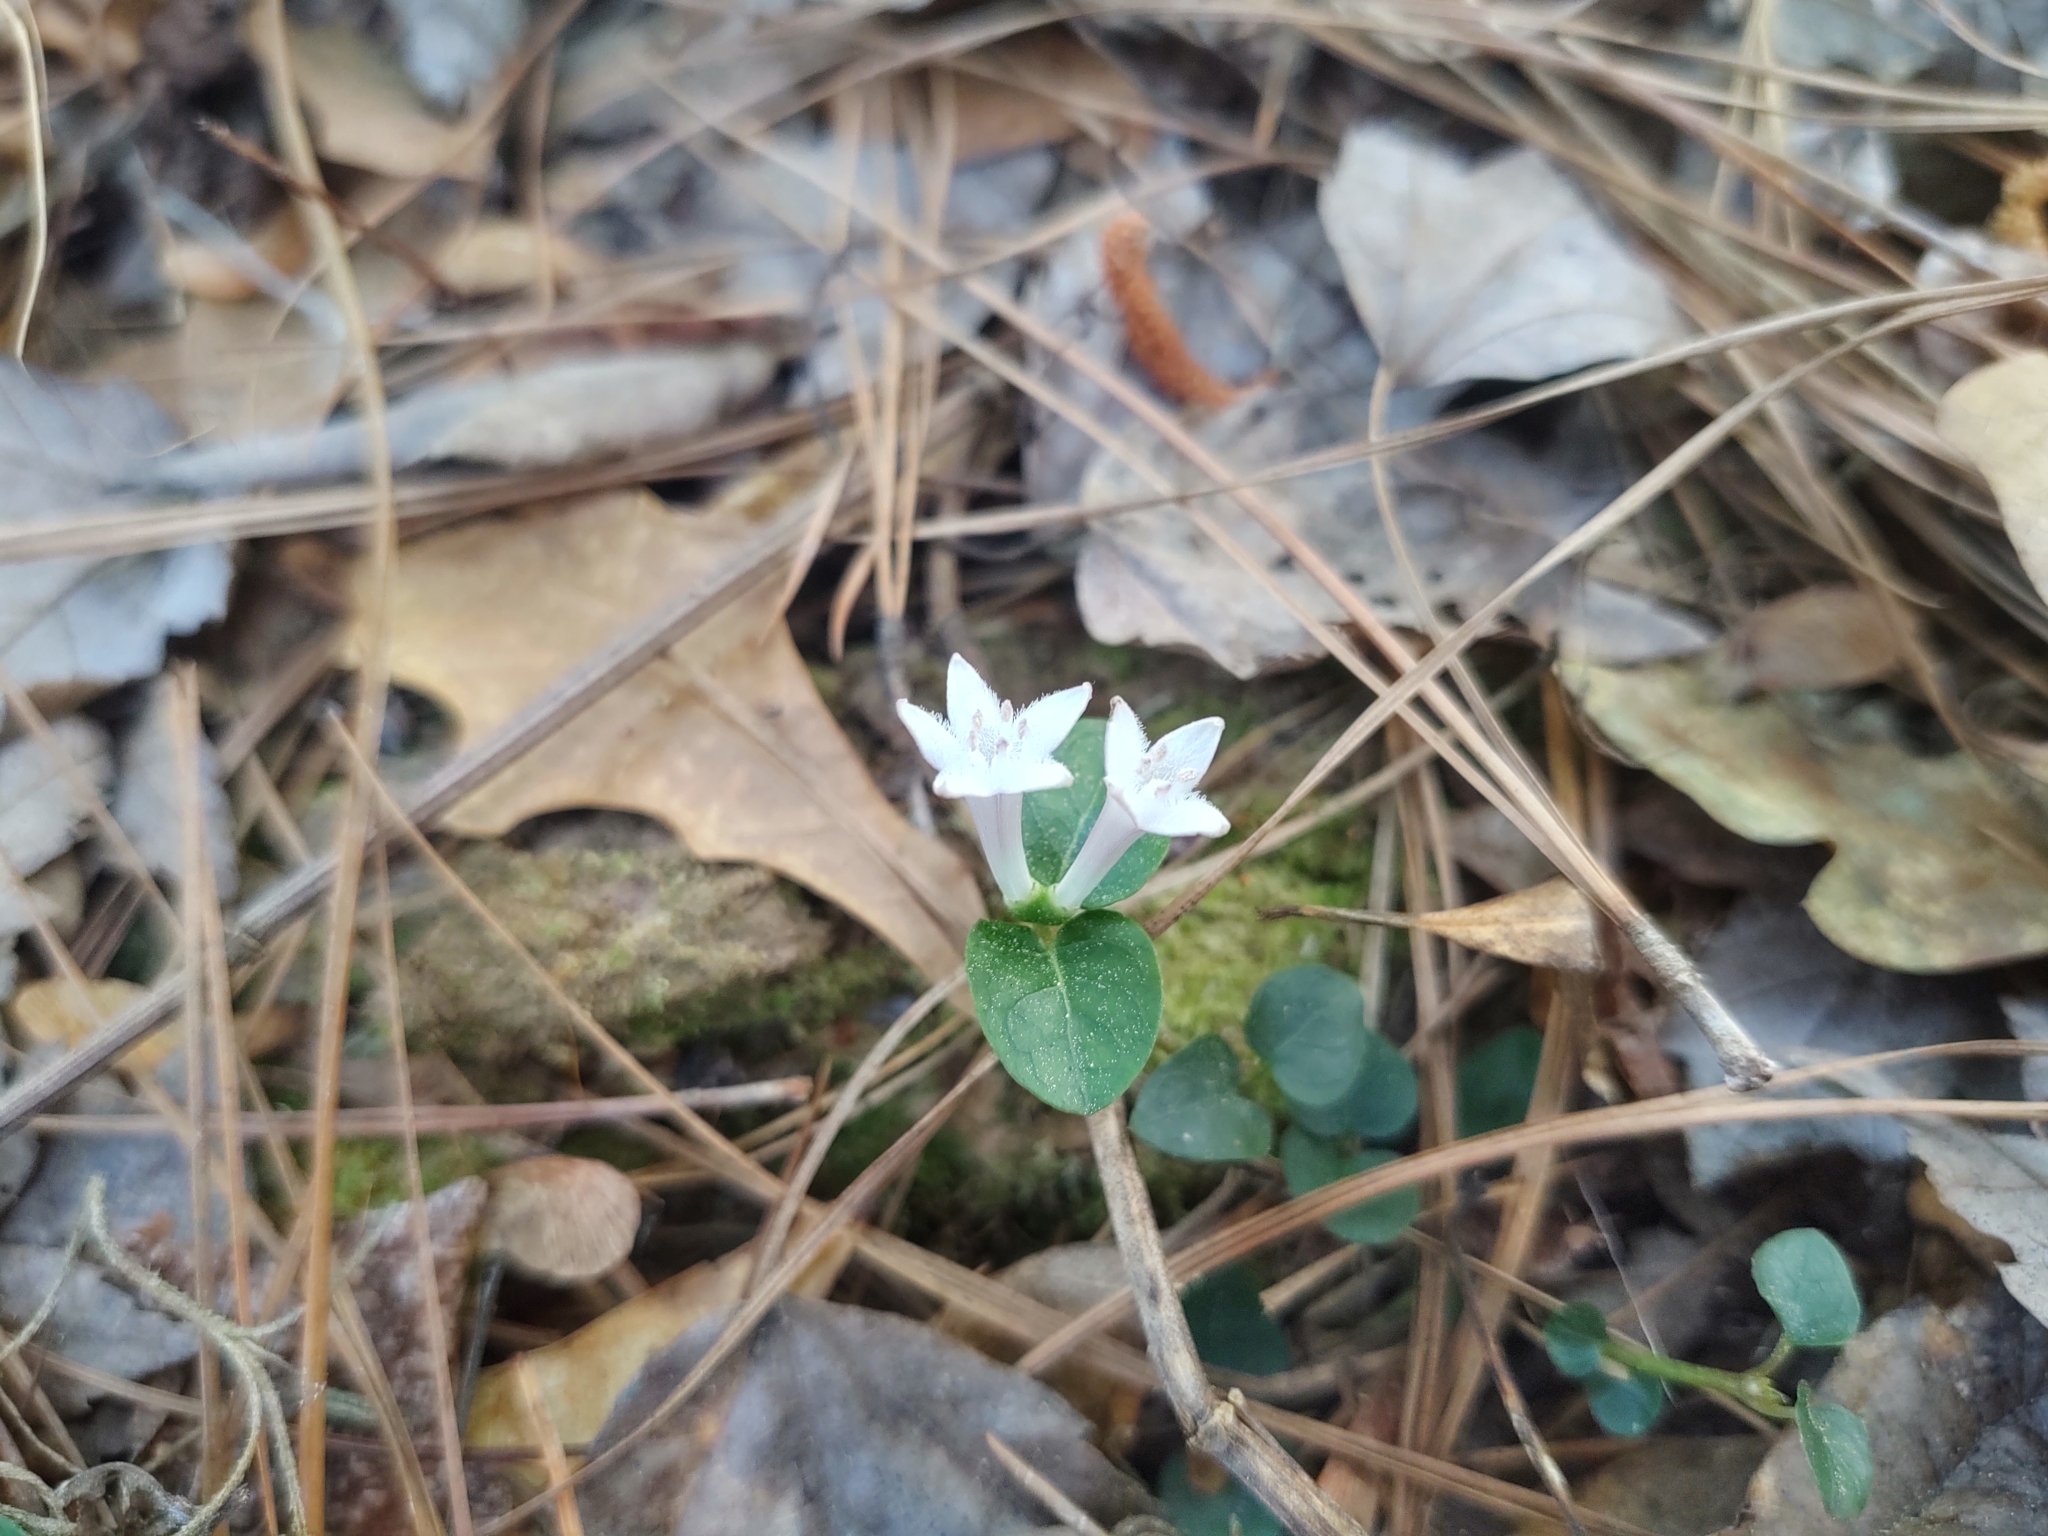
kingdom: Plantae
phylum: Tracheophyta
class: Magnoliopsida
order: Gentianales
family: Rubiaceae
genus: Mitchella
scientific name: Mitchella repens
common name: Partridge-berry
